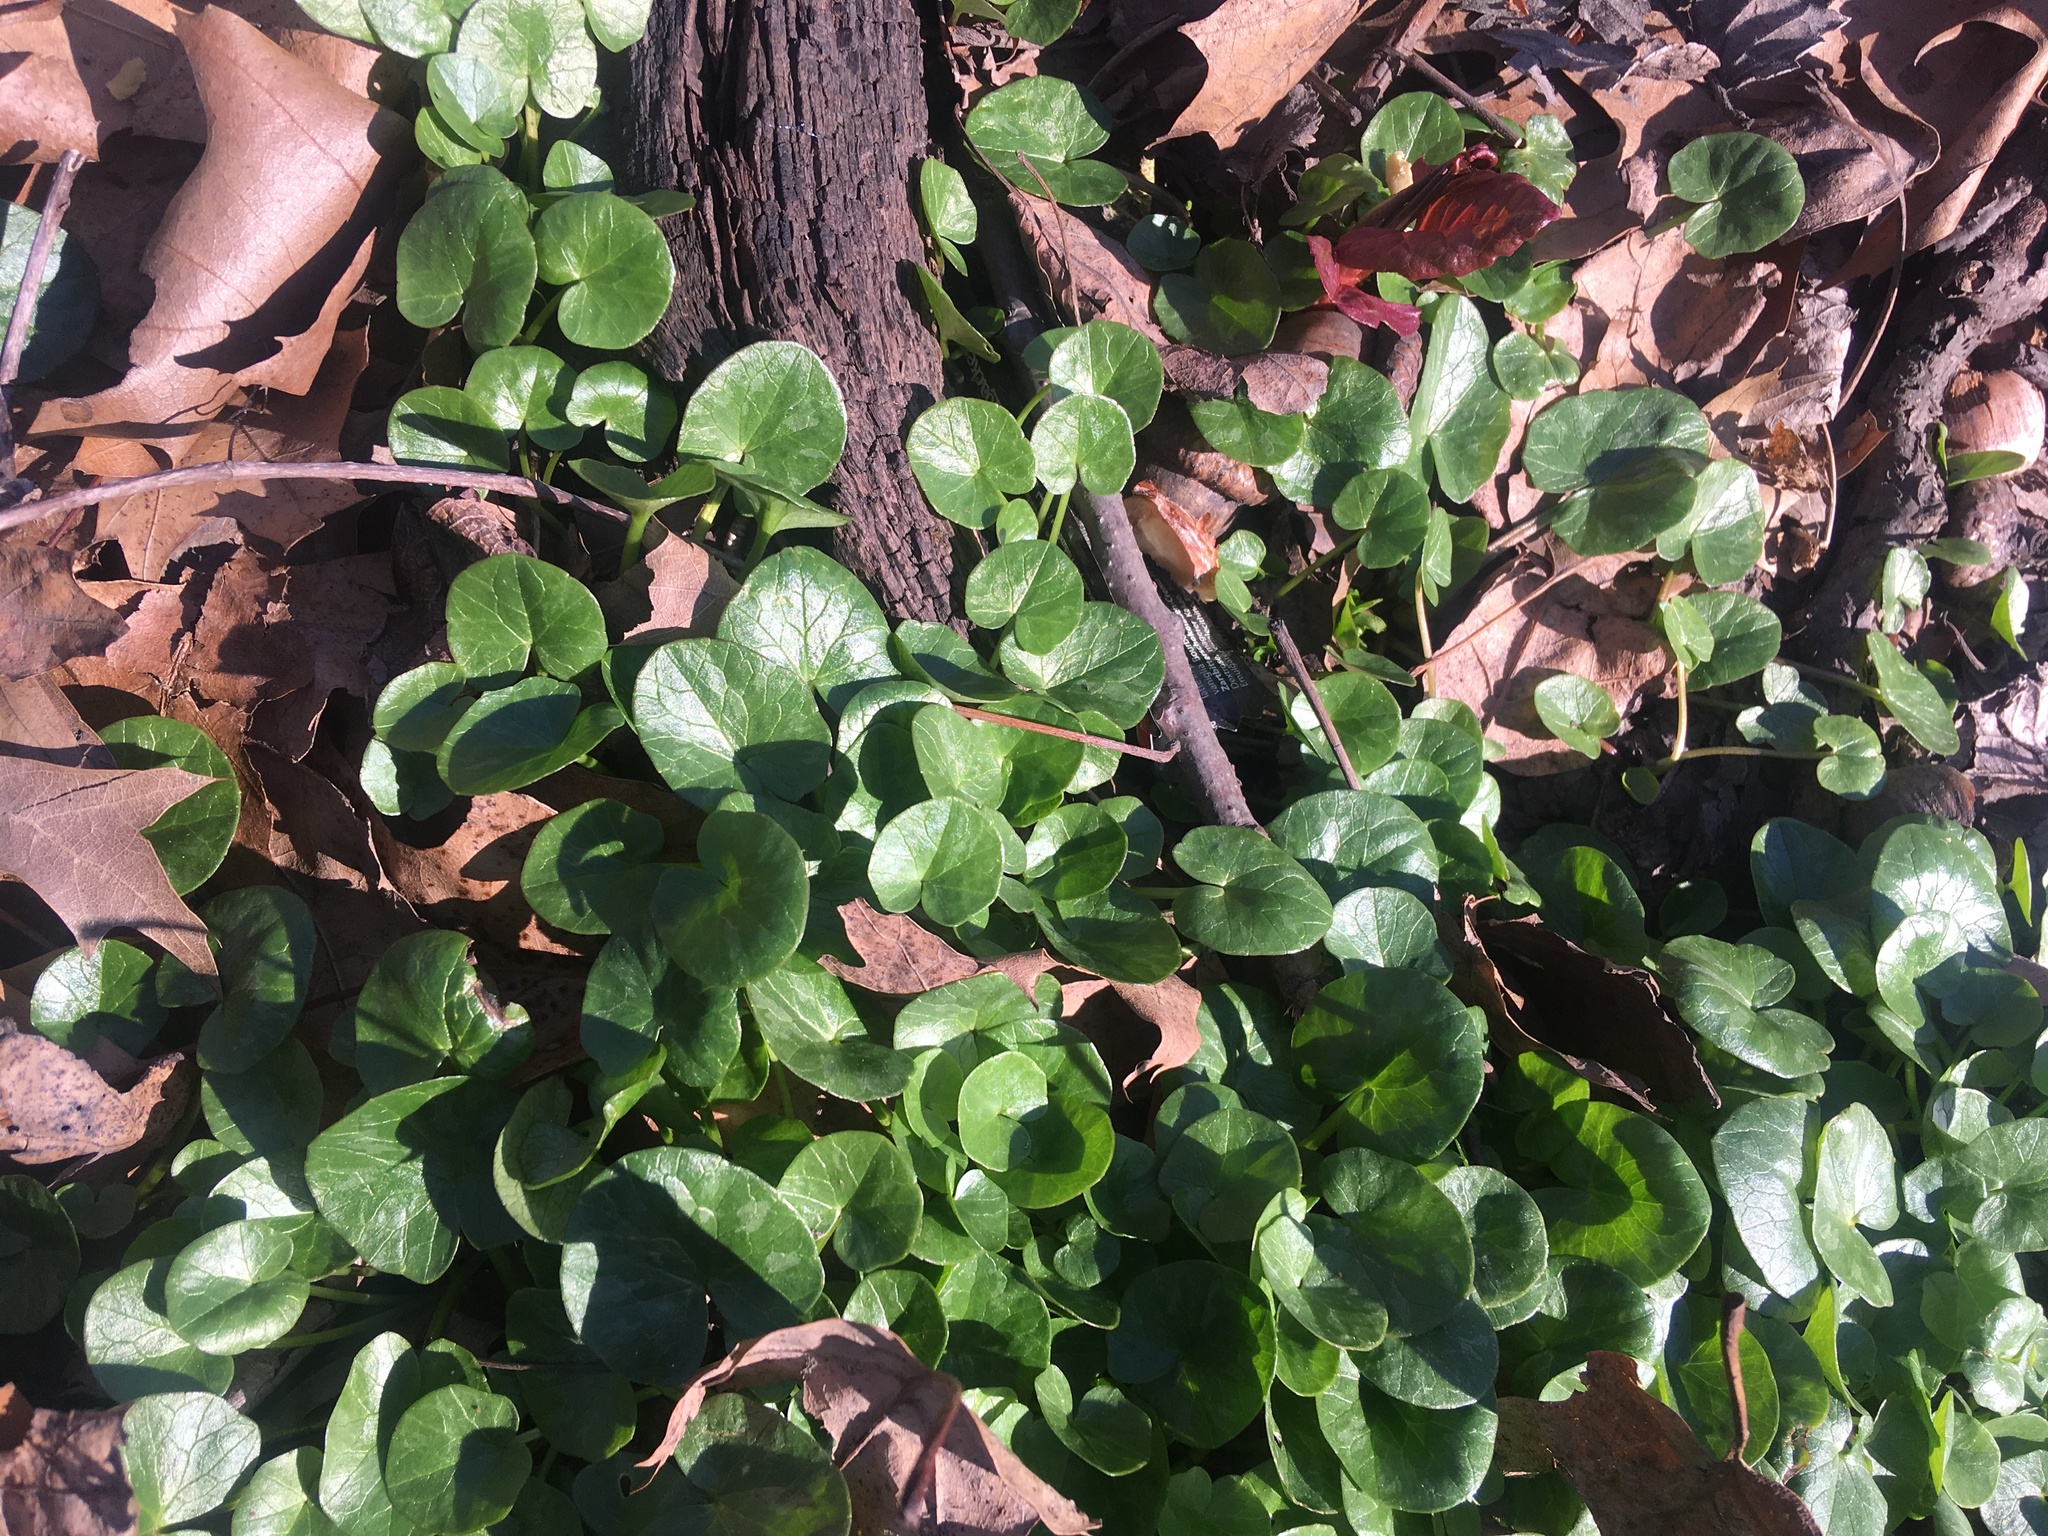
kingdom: Plantae
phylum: Tracheophyta
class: Magnoliopsida
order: Ranunculales
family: Ranunculaceae
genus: Ficaria
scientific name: Ficaria verna
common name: Lesser celandine
